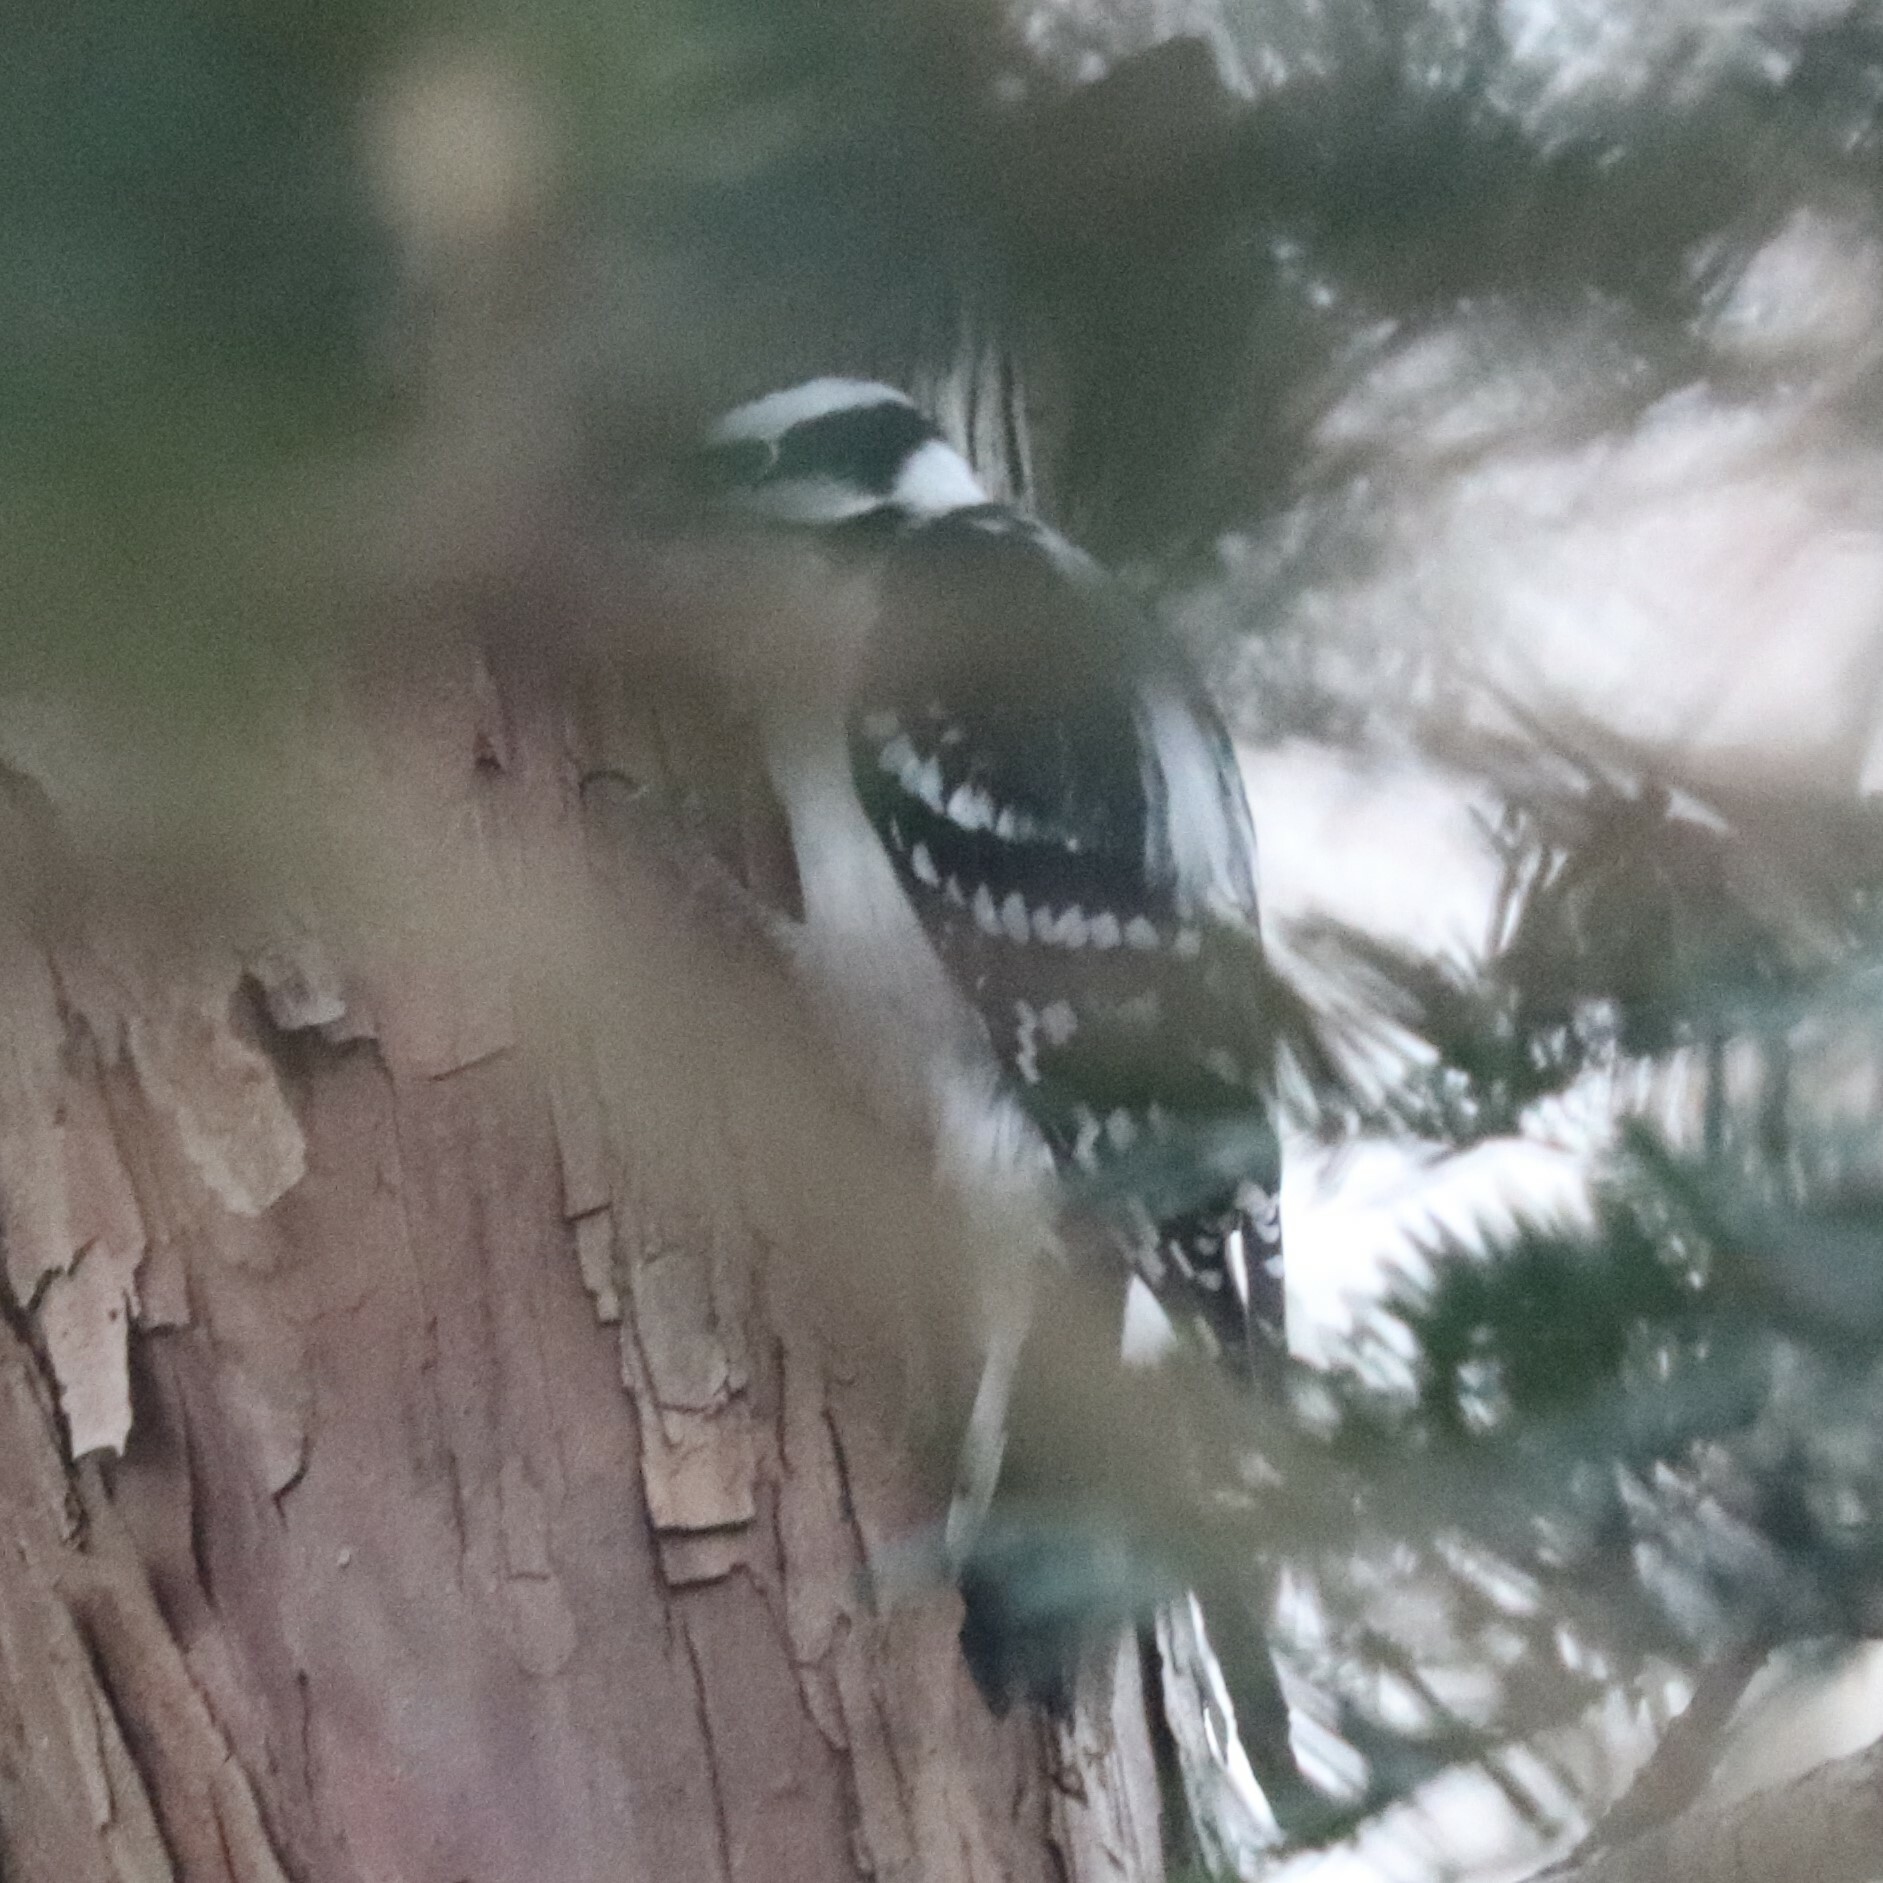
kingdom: Animalia
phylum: Chordata
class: Aves
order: Piciformes
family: Picidae
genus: Dryobates
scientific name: Dryobates pubescens
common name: Downy woodpecker
